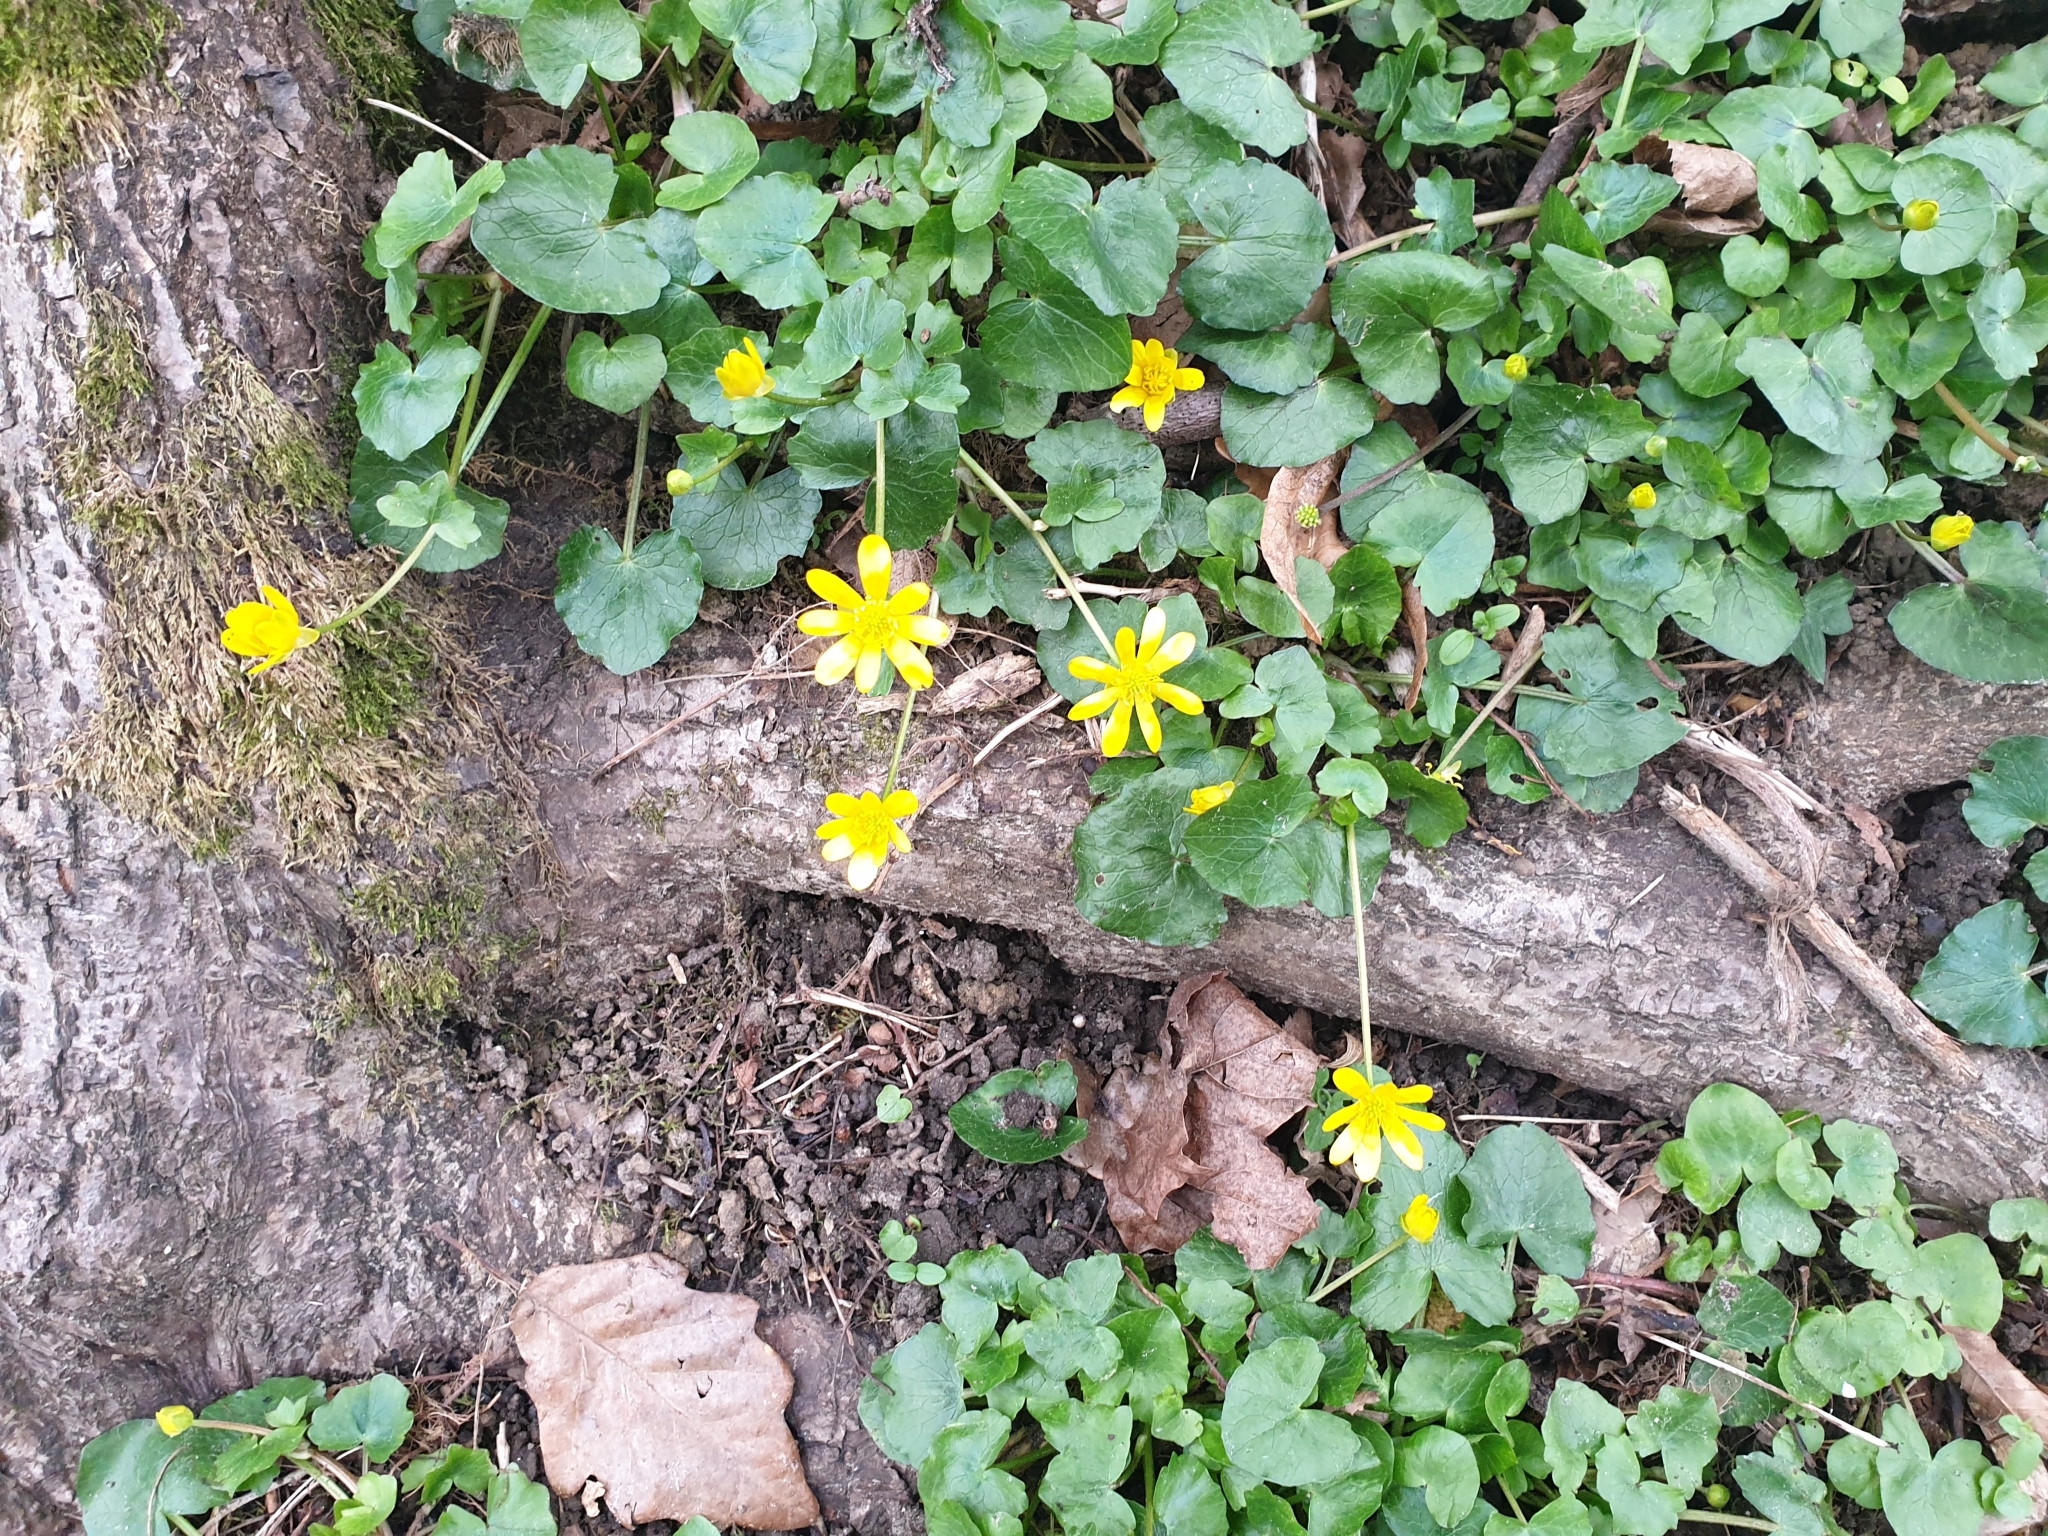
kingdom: Plantae
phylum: Tracheophyta
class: Magnoliopsida
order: Ranunculales
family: Ranunculaceae
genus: Ficaria
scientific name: Ficaria verna
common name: Lesser celandine
